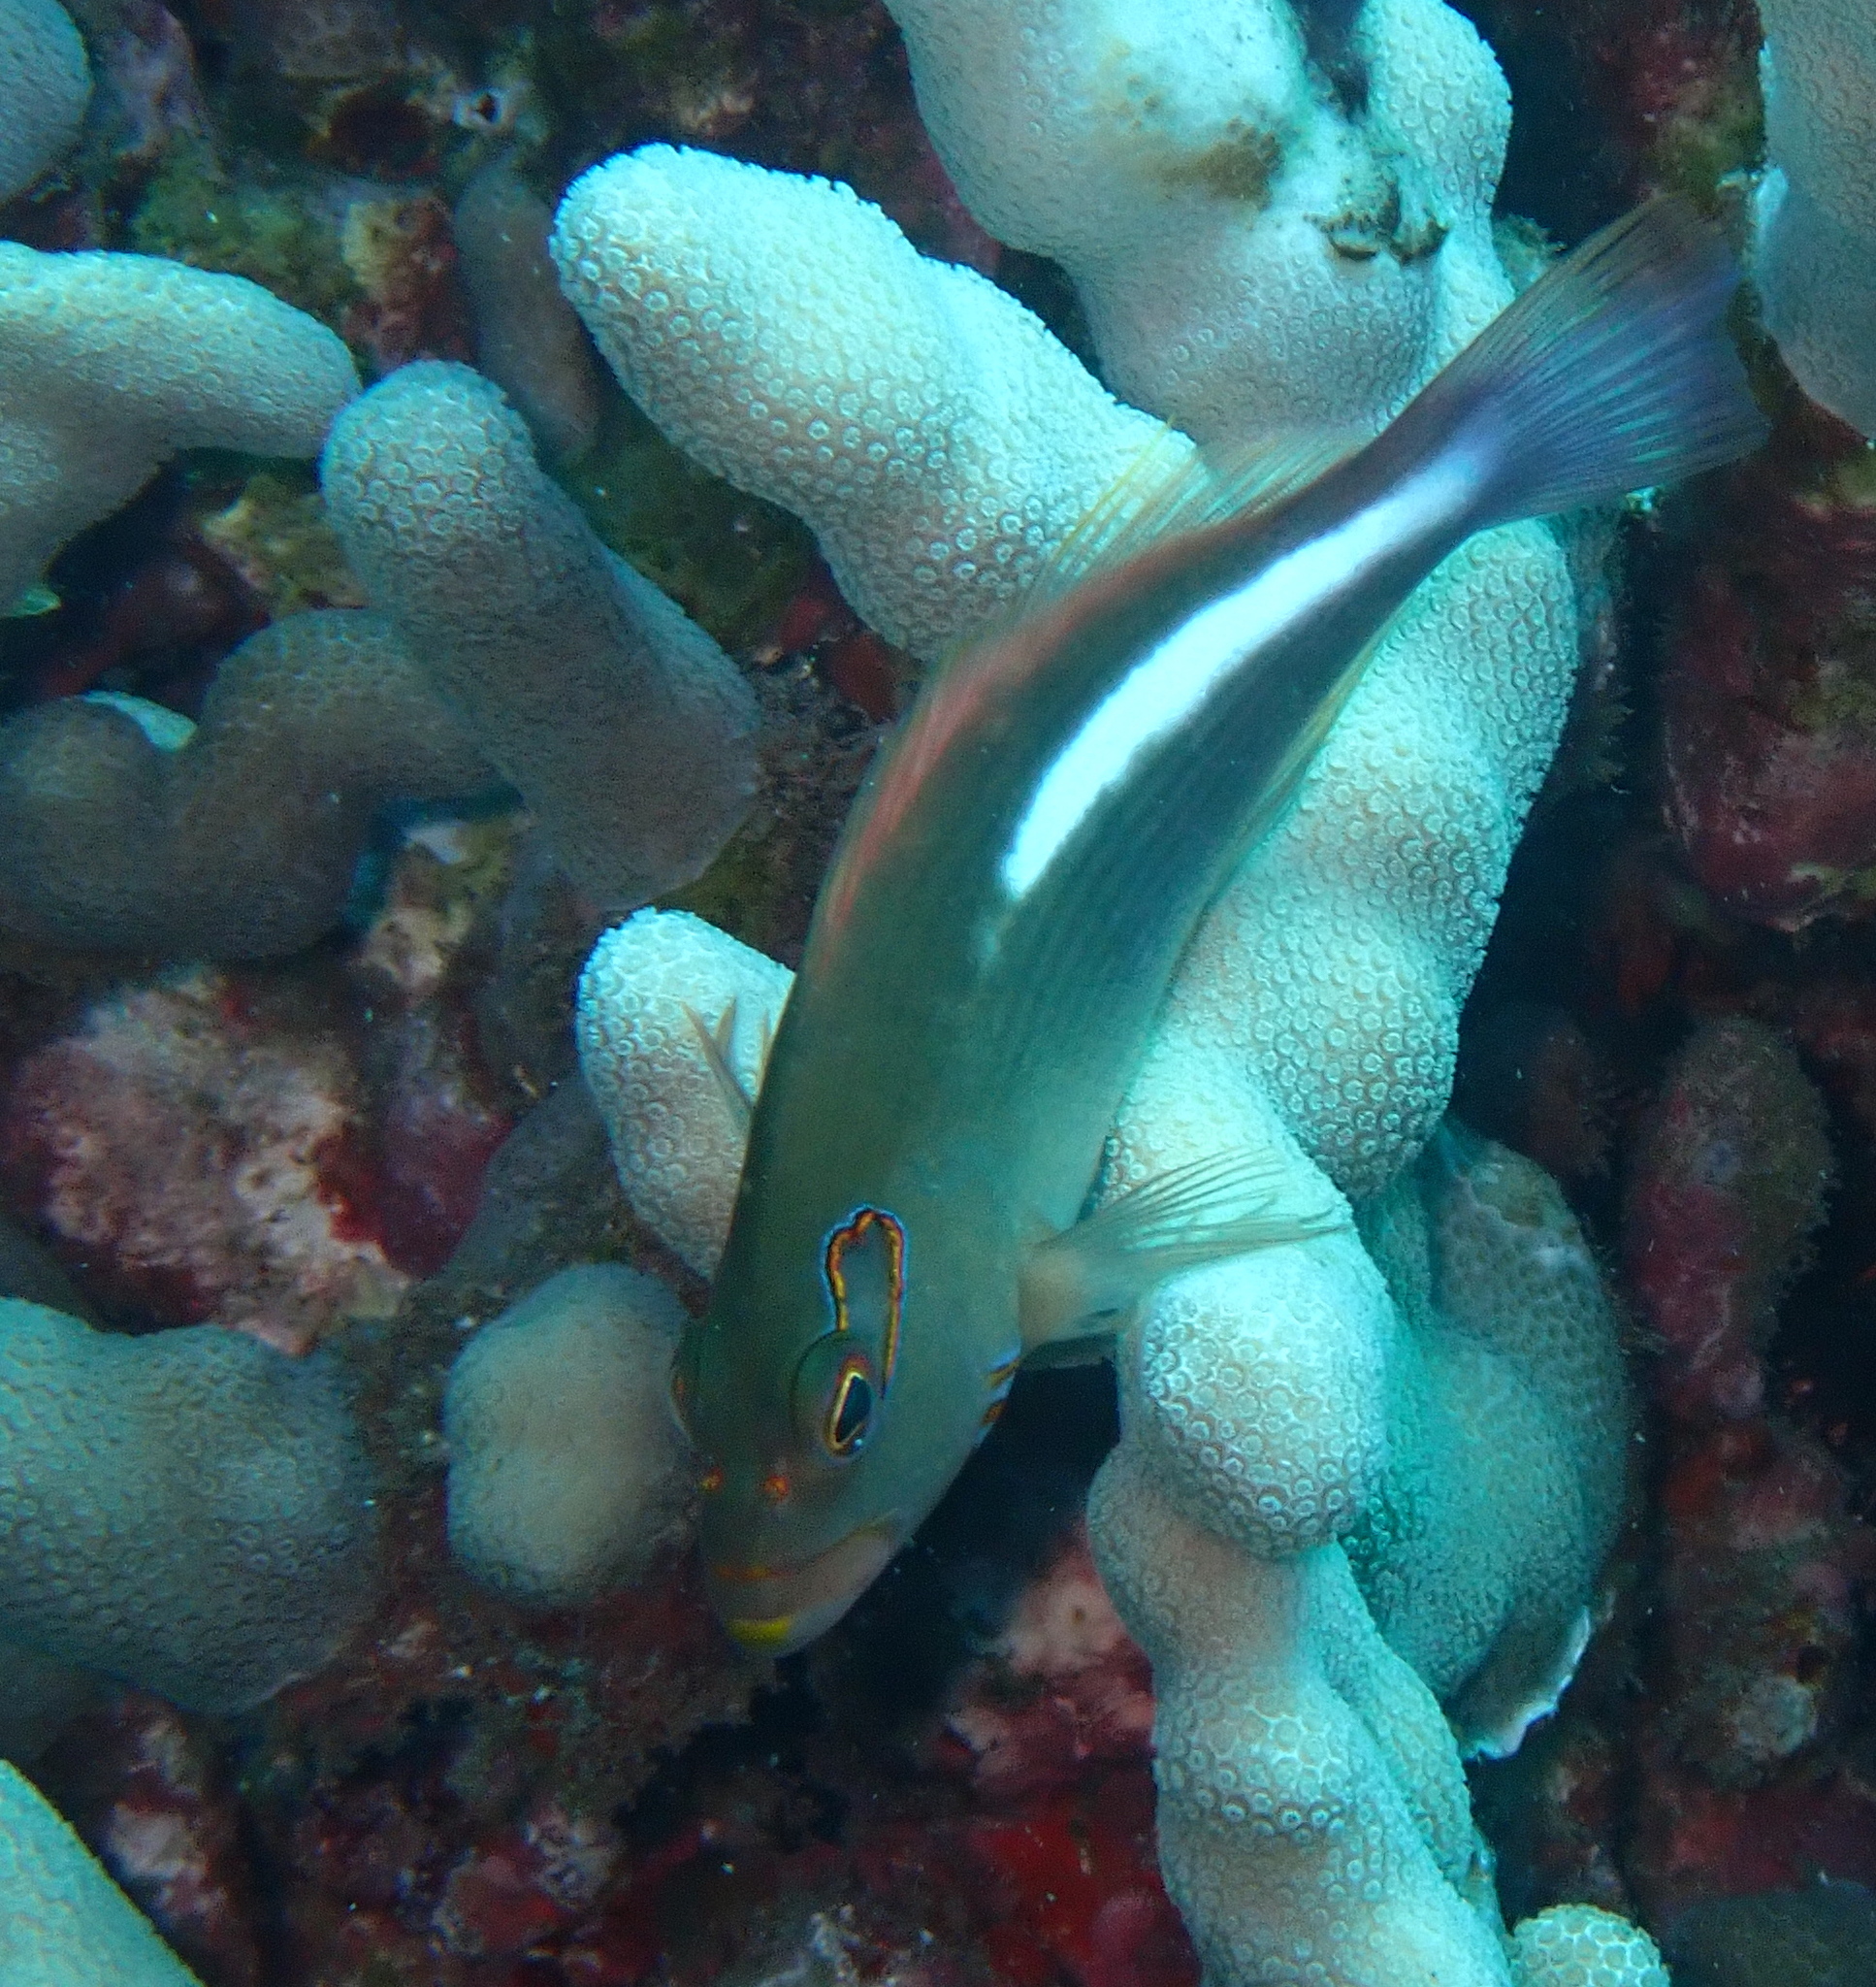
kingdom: Animalia
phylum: Chordata
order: Perciformes
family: Cirrhitidae
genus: Paracirrhites
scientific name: Paracirrhites arcatus
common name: Arc-eye hawkfish
